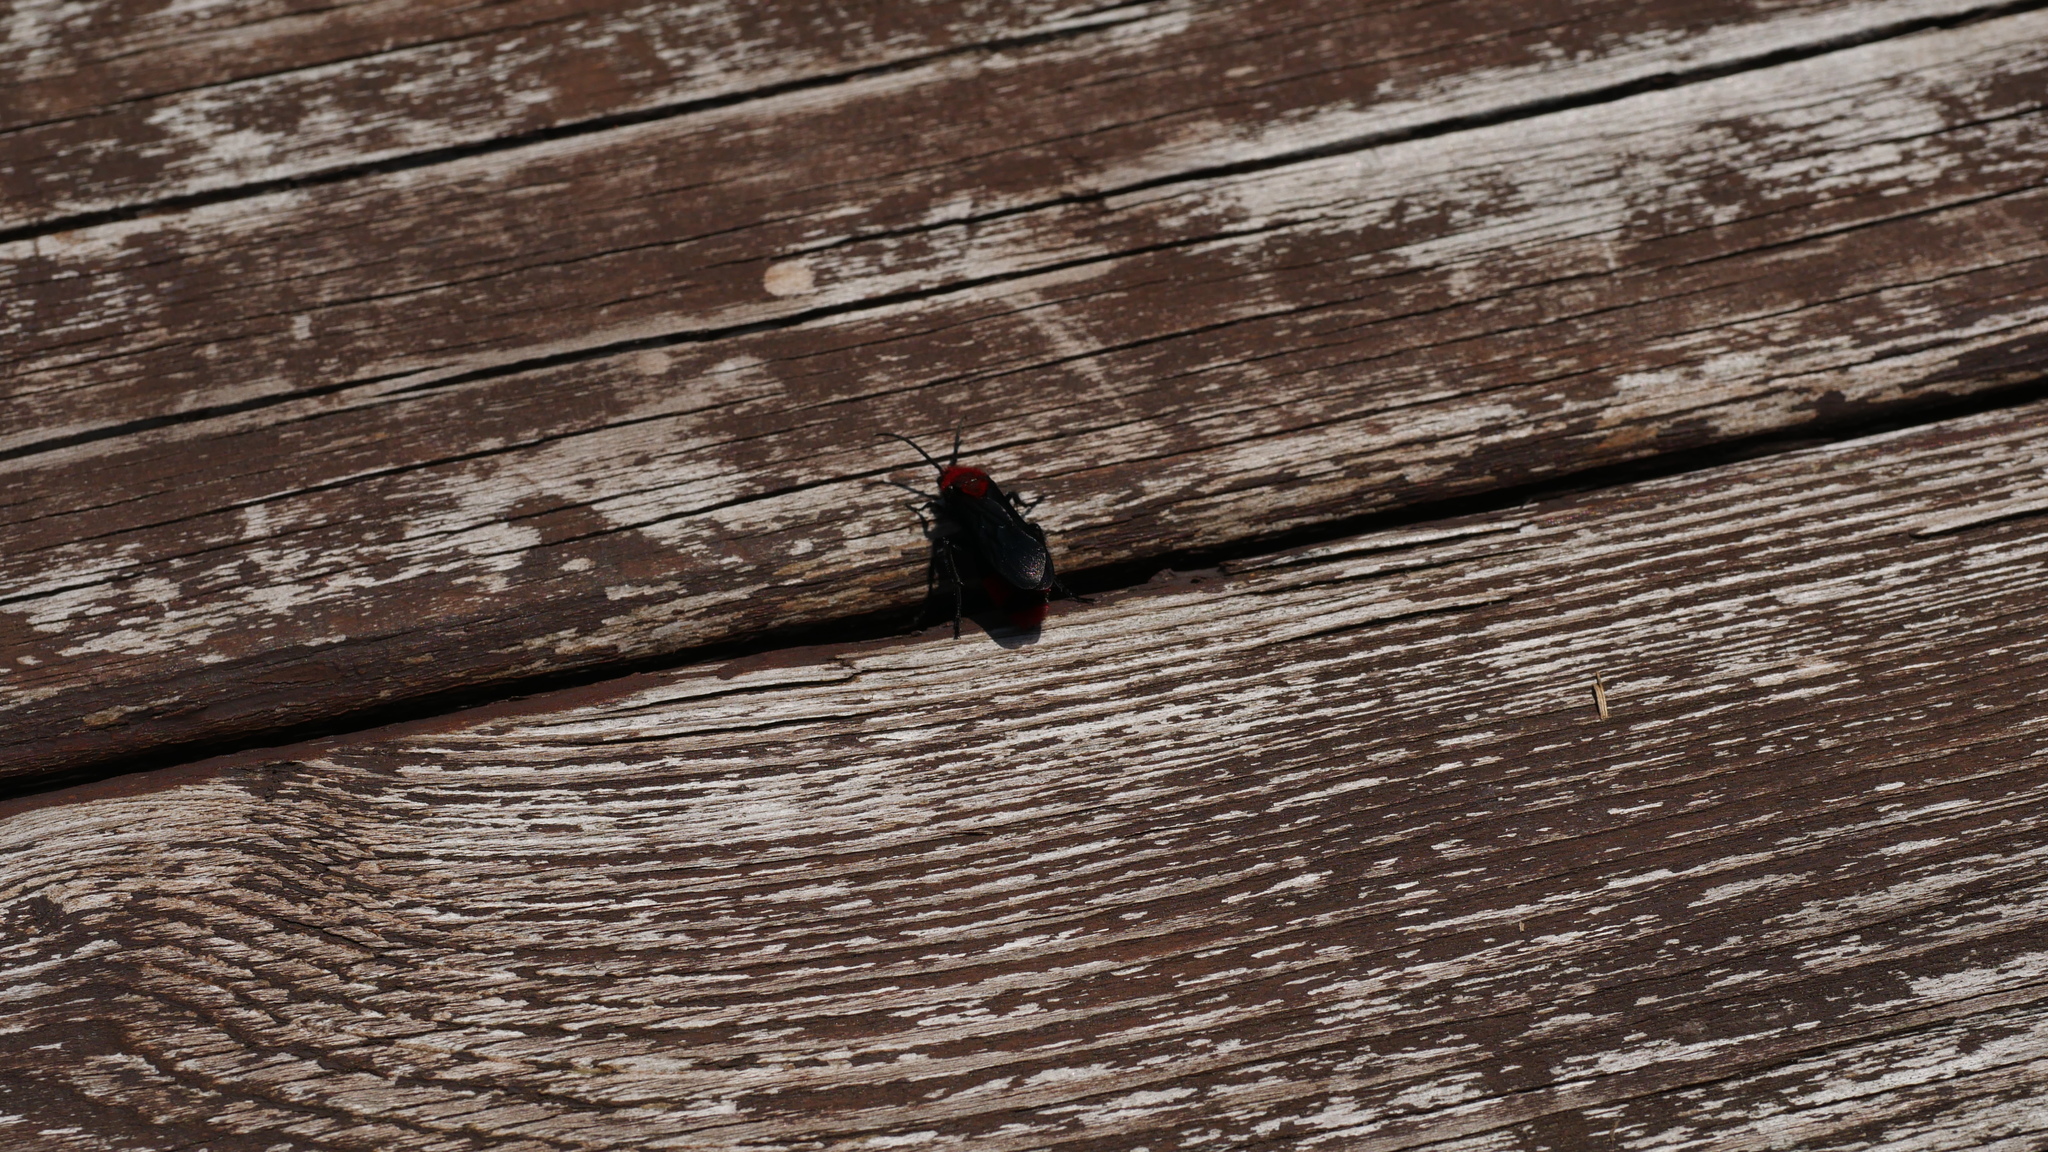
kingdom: Animalia
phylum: Arthropoda
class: Insecta
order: Hymenoptera
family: Mutillidae
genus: Dasymutilla
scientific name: Dasymutilla occidentalis
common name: Common eastern velvet ant
